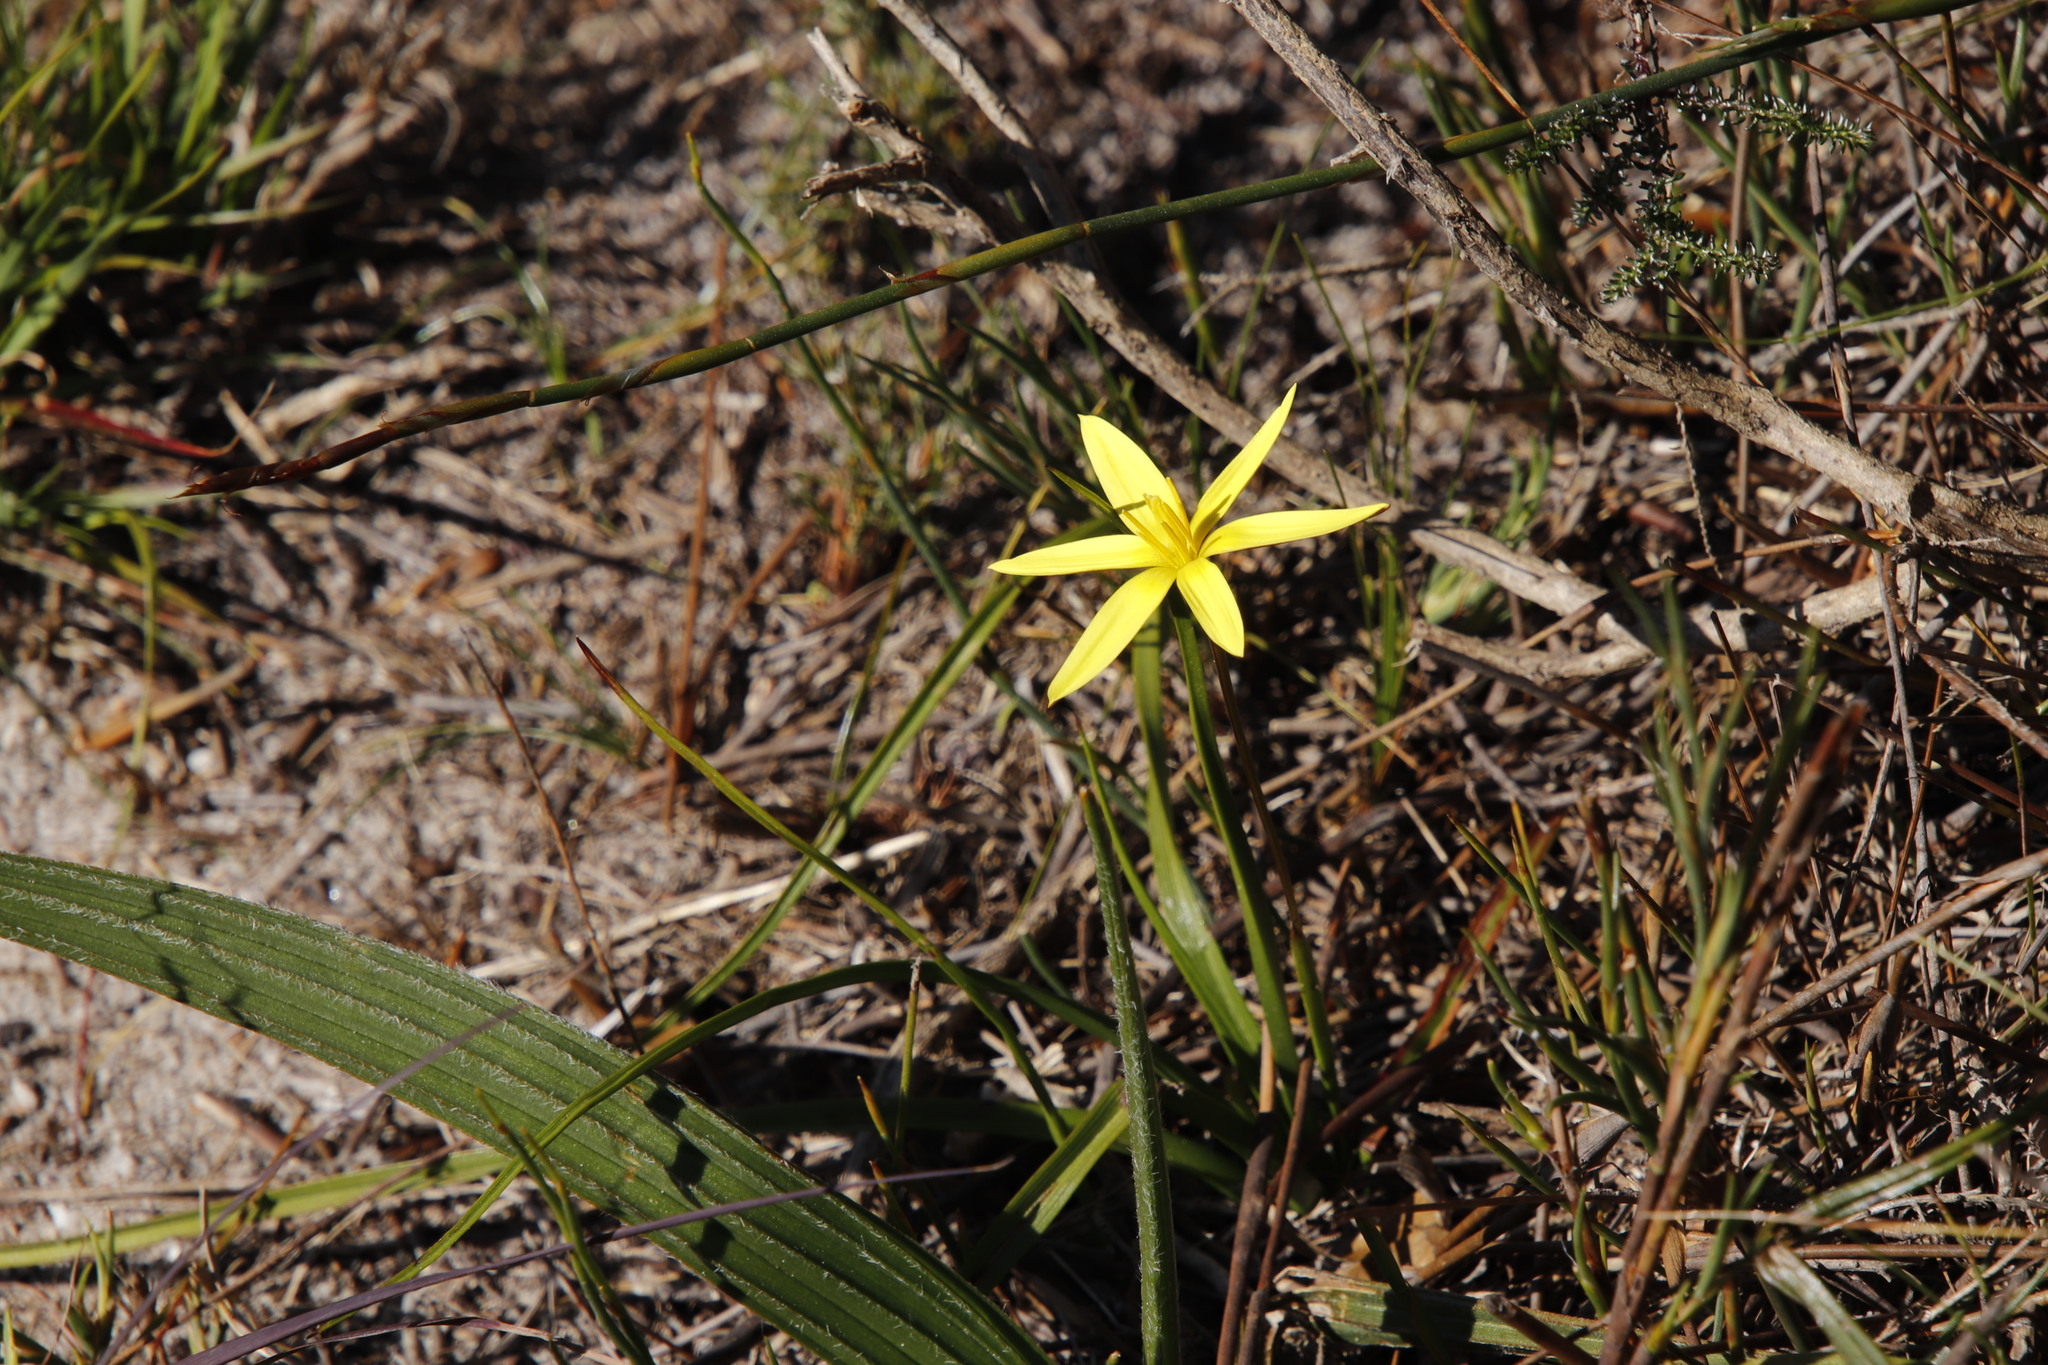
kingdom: Plantae
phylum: Tracheophyta
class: Liliopsida
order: Asparagales
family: Hypoxidaceae
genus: Pauridia
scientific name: Pauridia capensis
